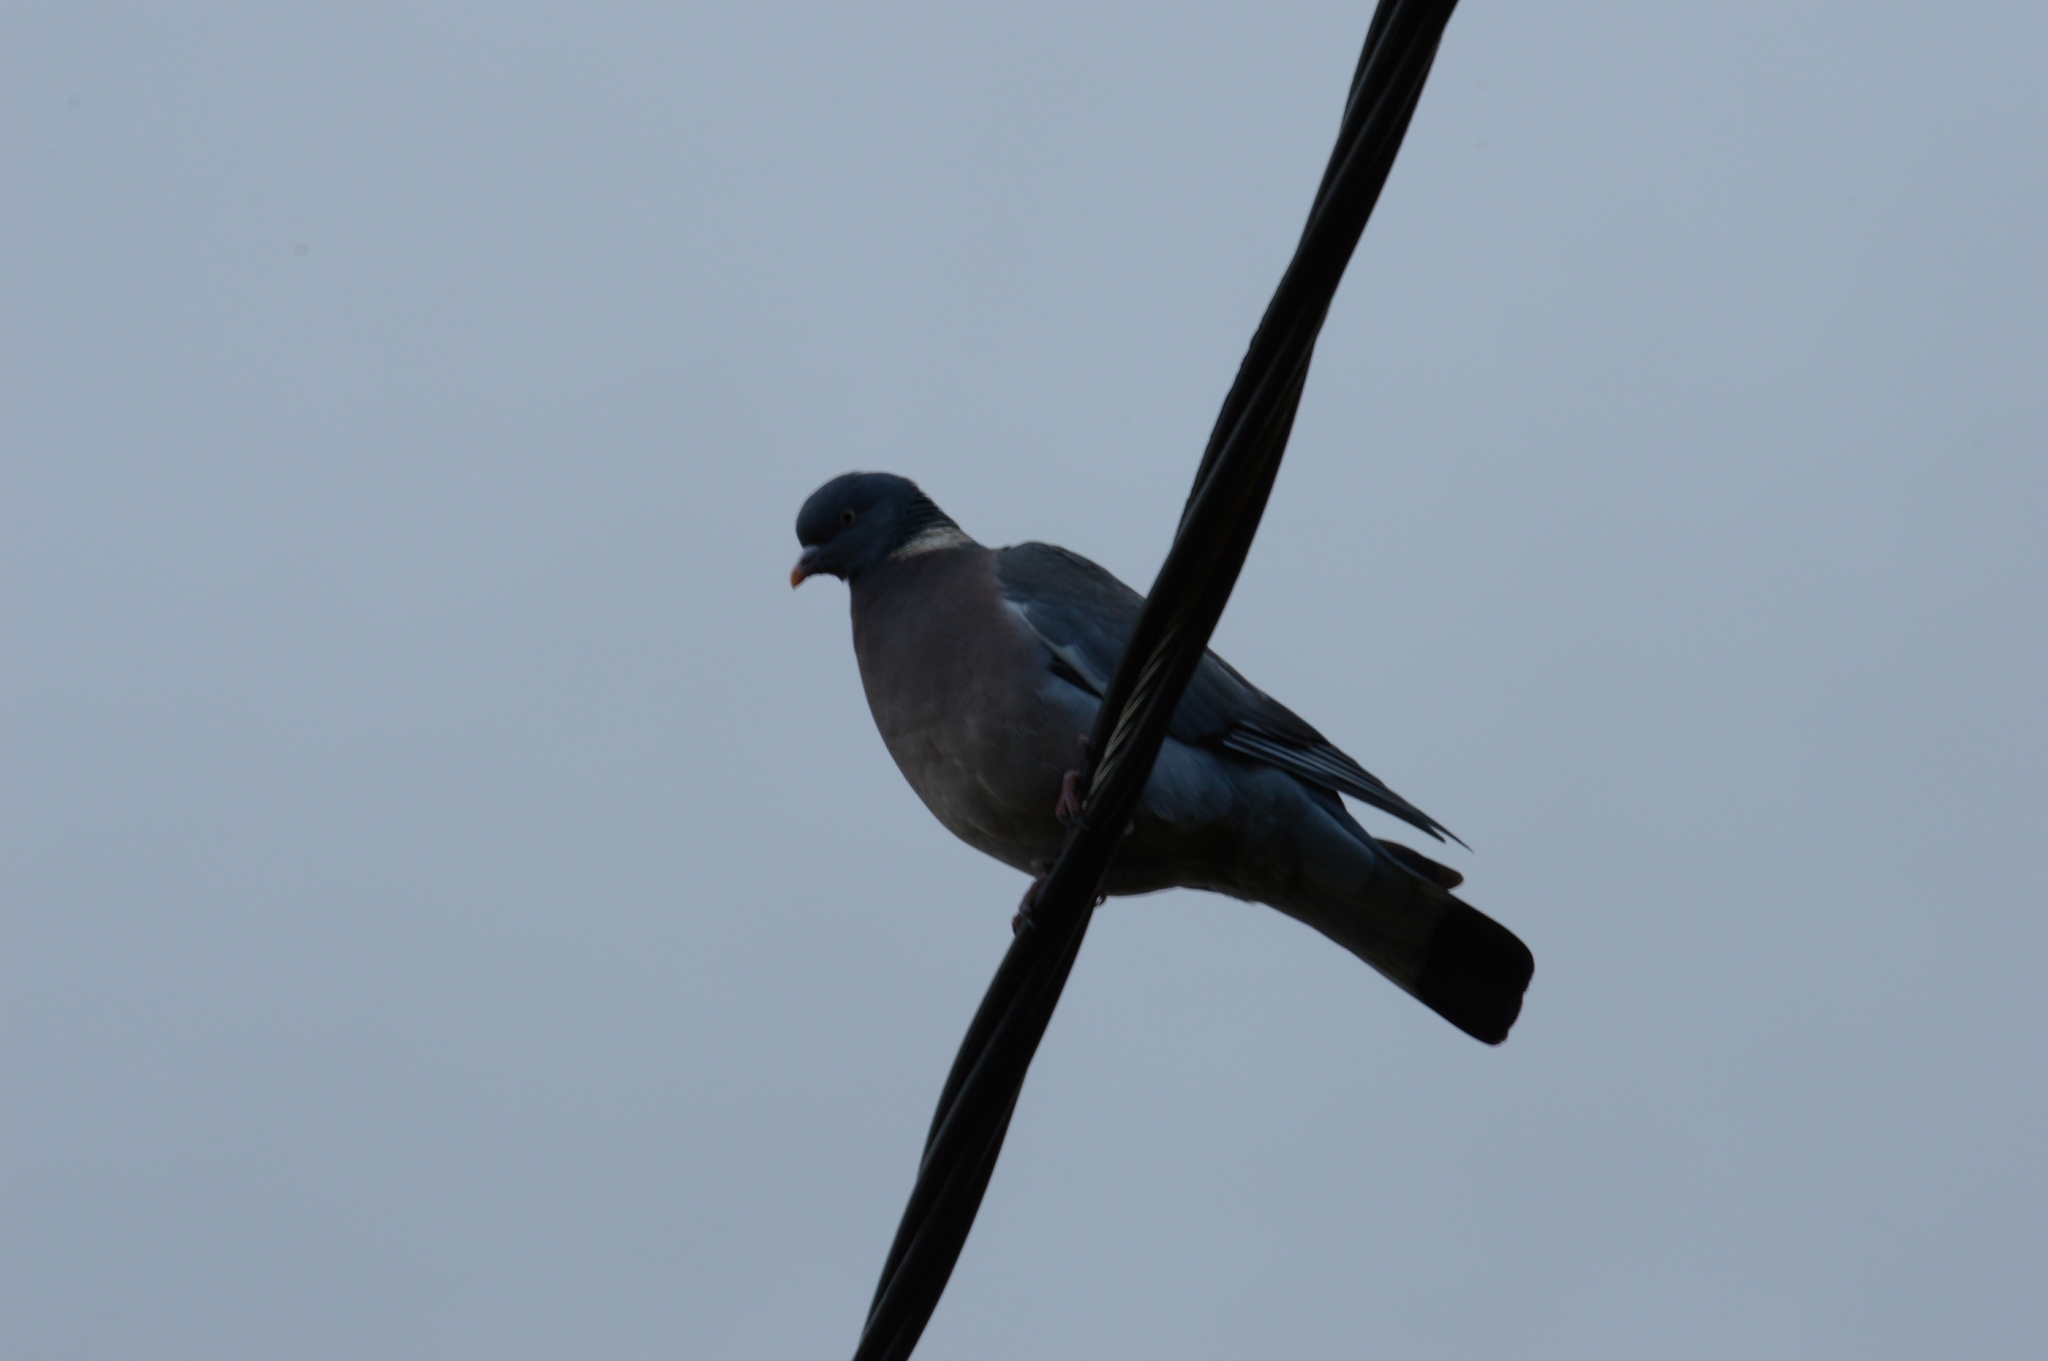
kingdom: Animalia
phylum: Chordata
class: Aves
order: Columbiformes
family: Columbidae
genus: Columba
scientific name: Columba palumbus
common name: Common wood pigeon
